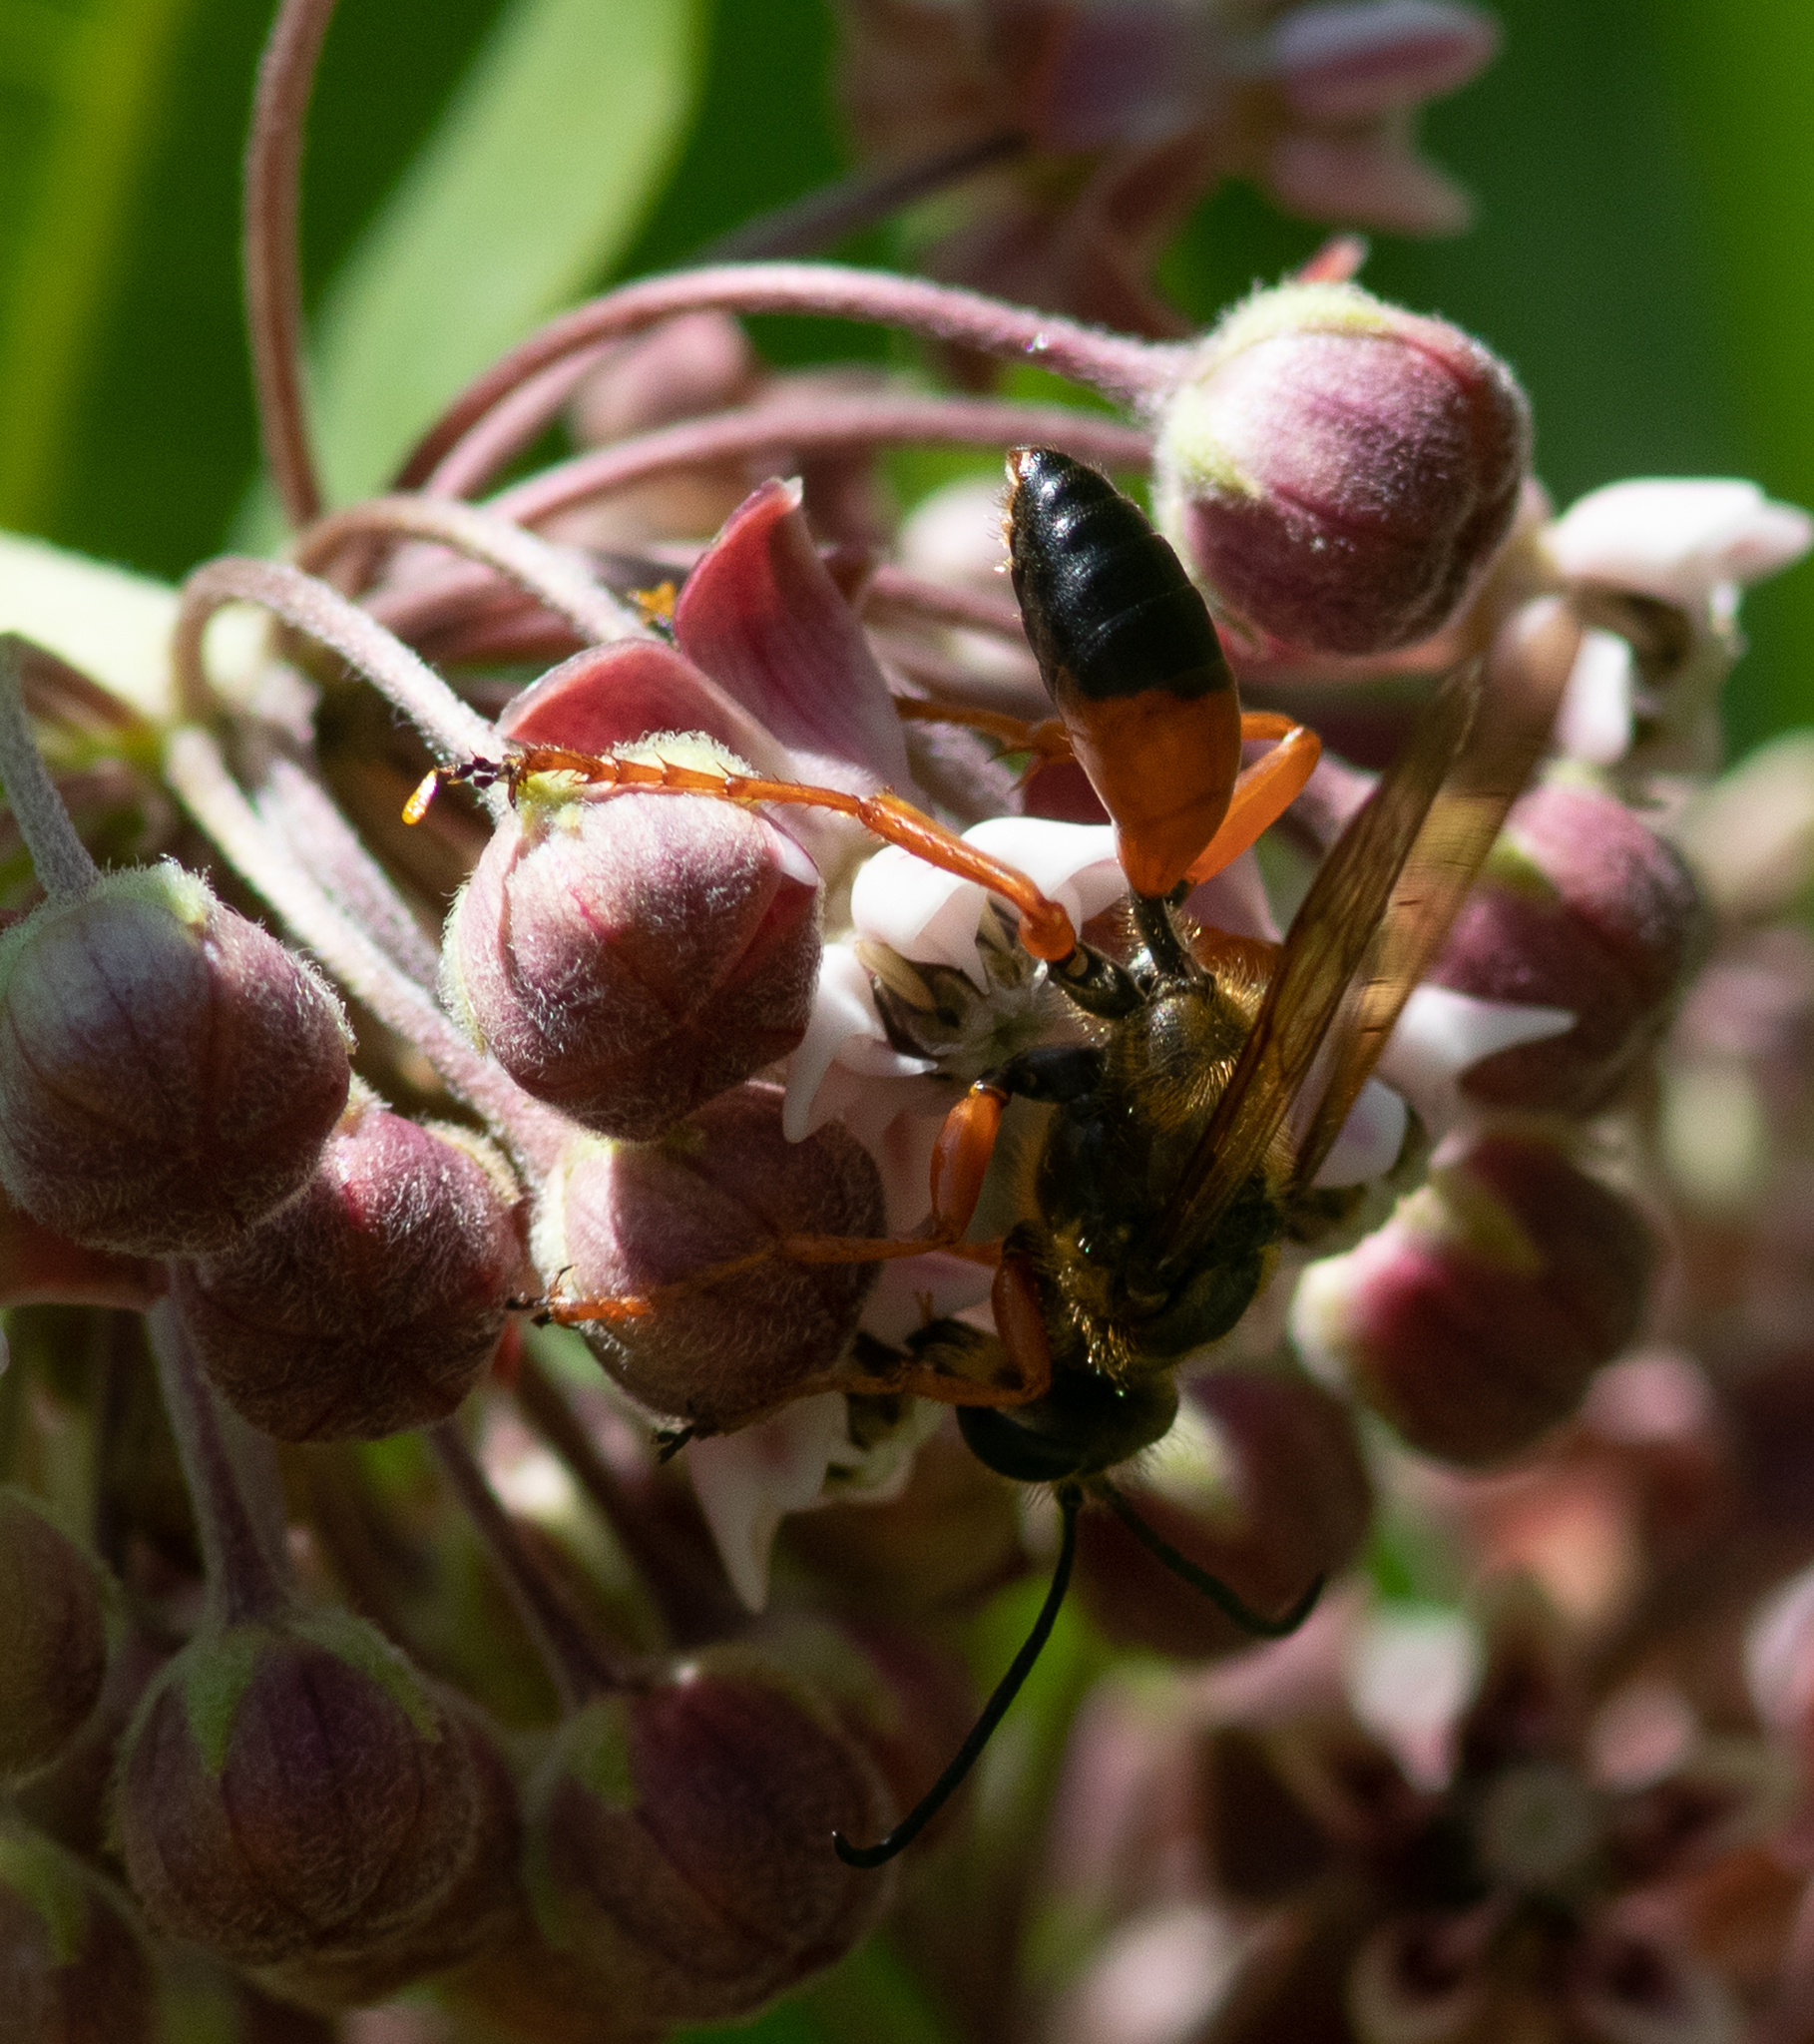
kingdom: Animalia
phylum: Arthropoda
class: Insecta
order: Hymenoptera
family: Sphecidae
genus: Sphex
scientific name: Sphex ichneumoneus
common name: Great golden digger wasp
